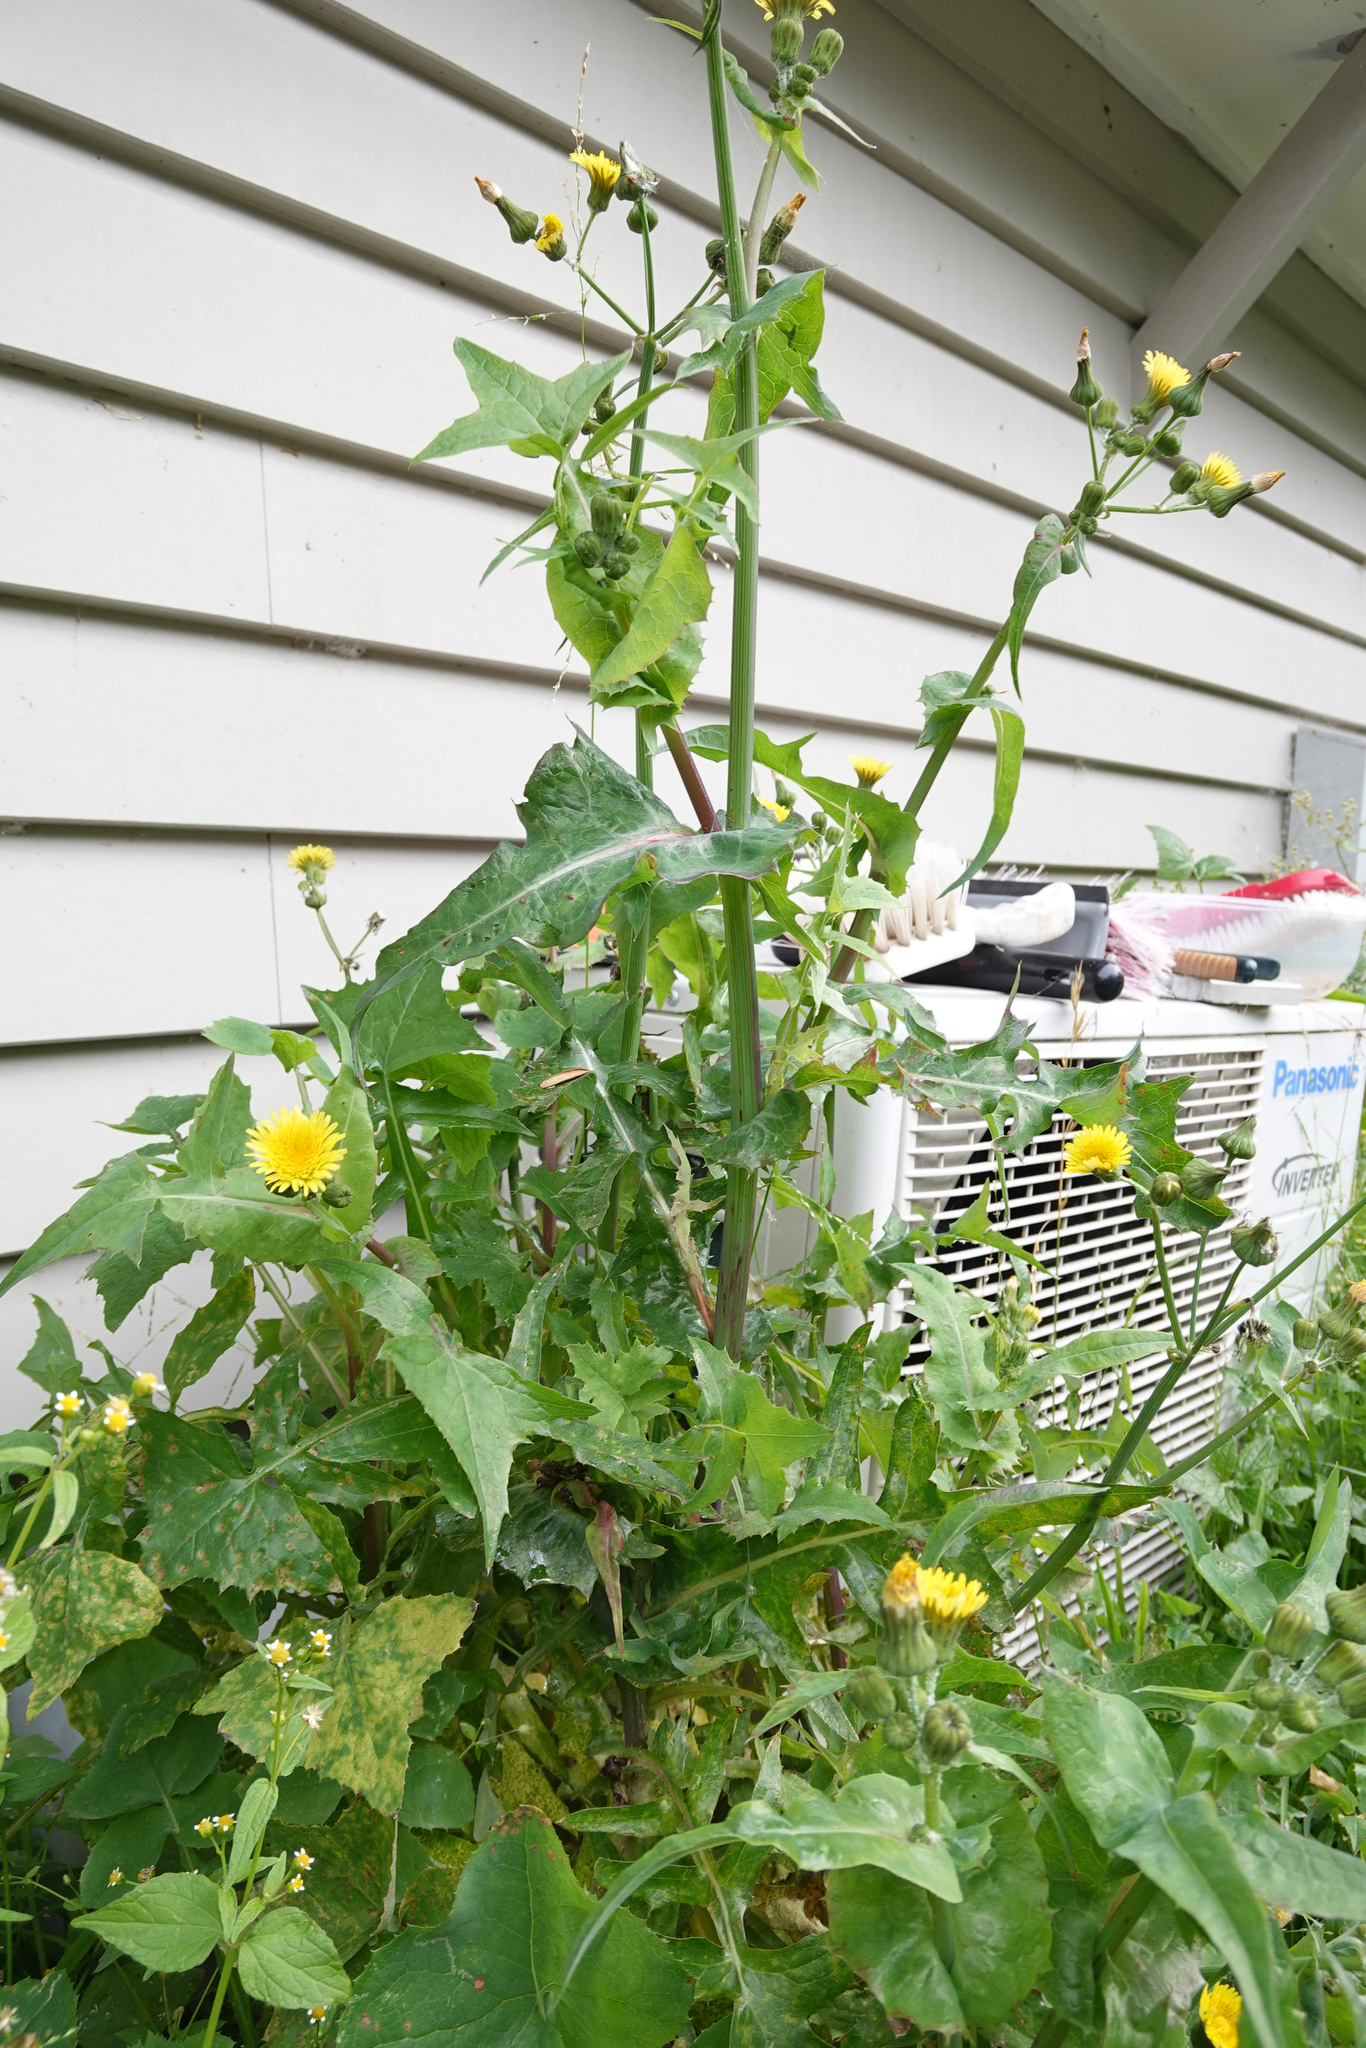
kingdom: Plantae
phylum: Tracheophyta
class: Magnoliopsida
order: Asterales
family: Asteraceae
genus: Sonchus
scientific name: Sonchus asper
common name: Prickly sow-thistle
